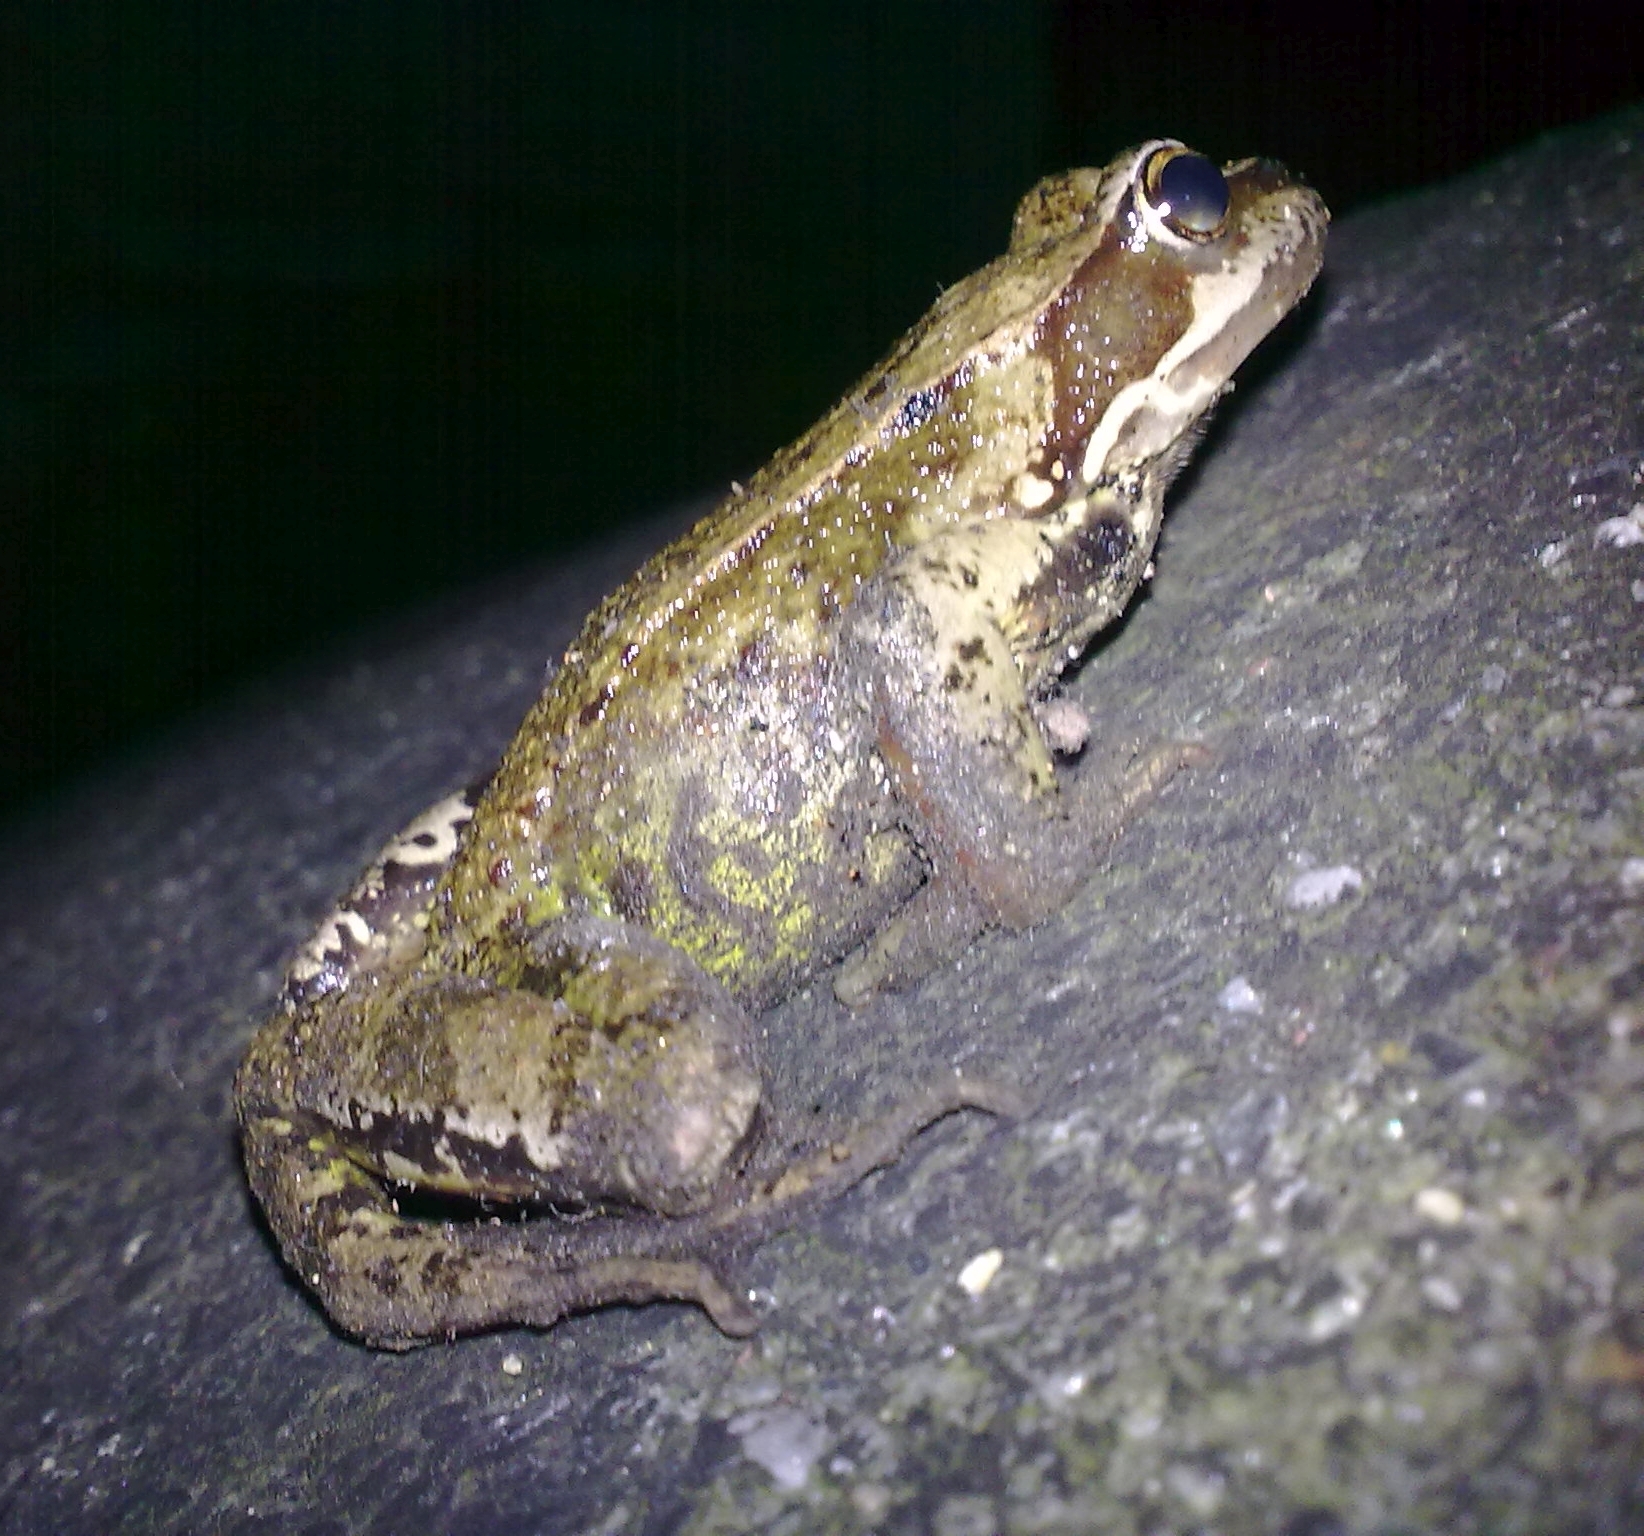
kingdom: Animalia
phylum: Chordata
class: Amphibia
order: Anura
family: Ranidae
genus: Rana
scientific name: Rana temporaria
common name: Common frog
